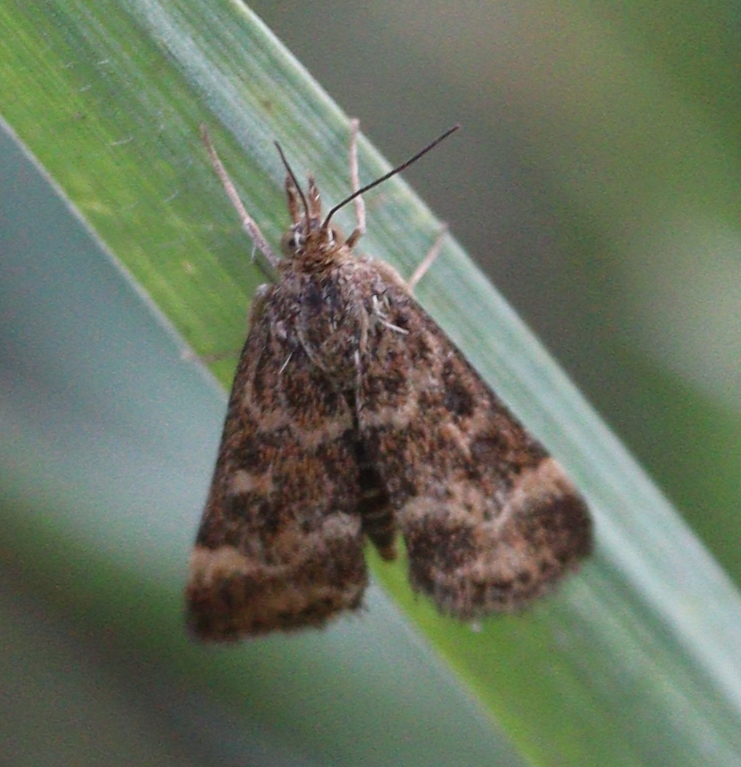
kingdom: Animalia
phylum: Arthropoda
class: Insecta
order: Lepidoptera
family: Crambidae
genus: Pyrausta
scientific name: Pyrausta despicata
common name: Straw-barred pearl
